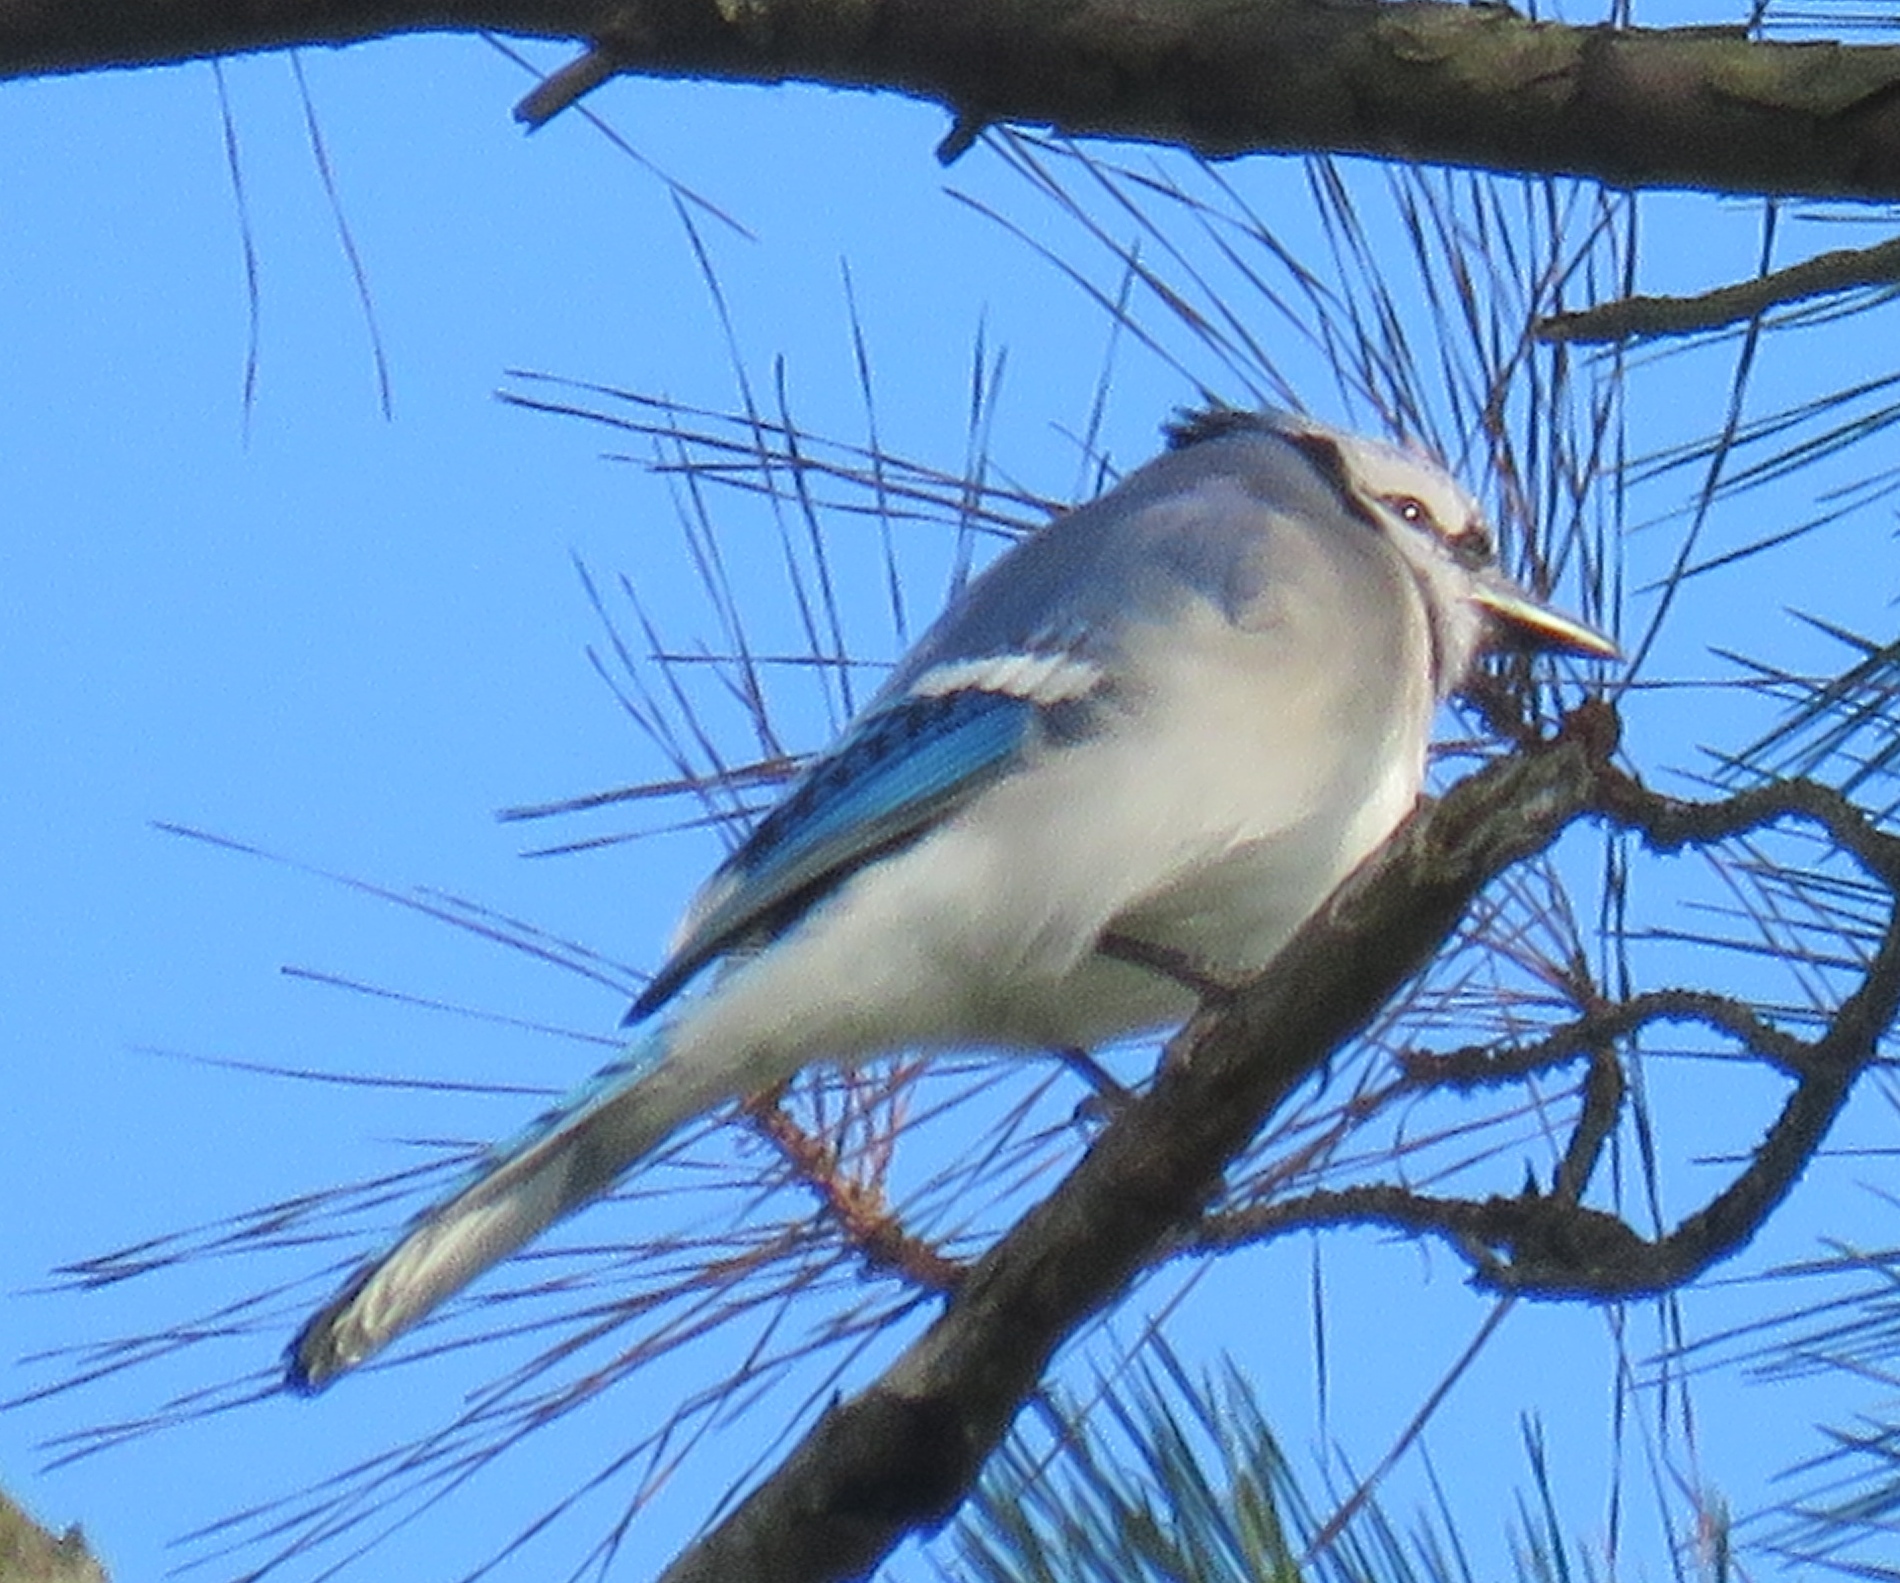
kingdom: Animalia
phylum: Chordata
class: Aves
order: Passeriformes
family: Corvidae
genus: Cyanocitta
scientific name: Cyanocitta cristata
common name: Blue jay
